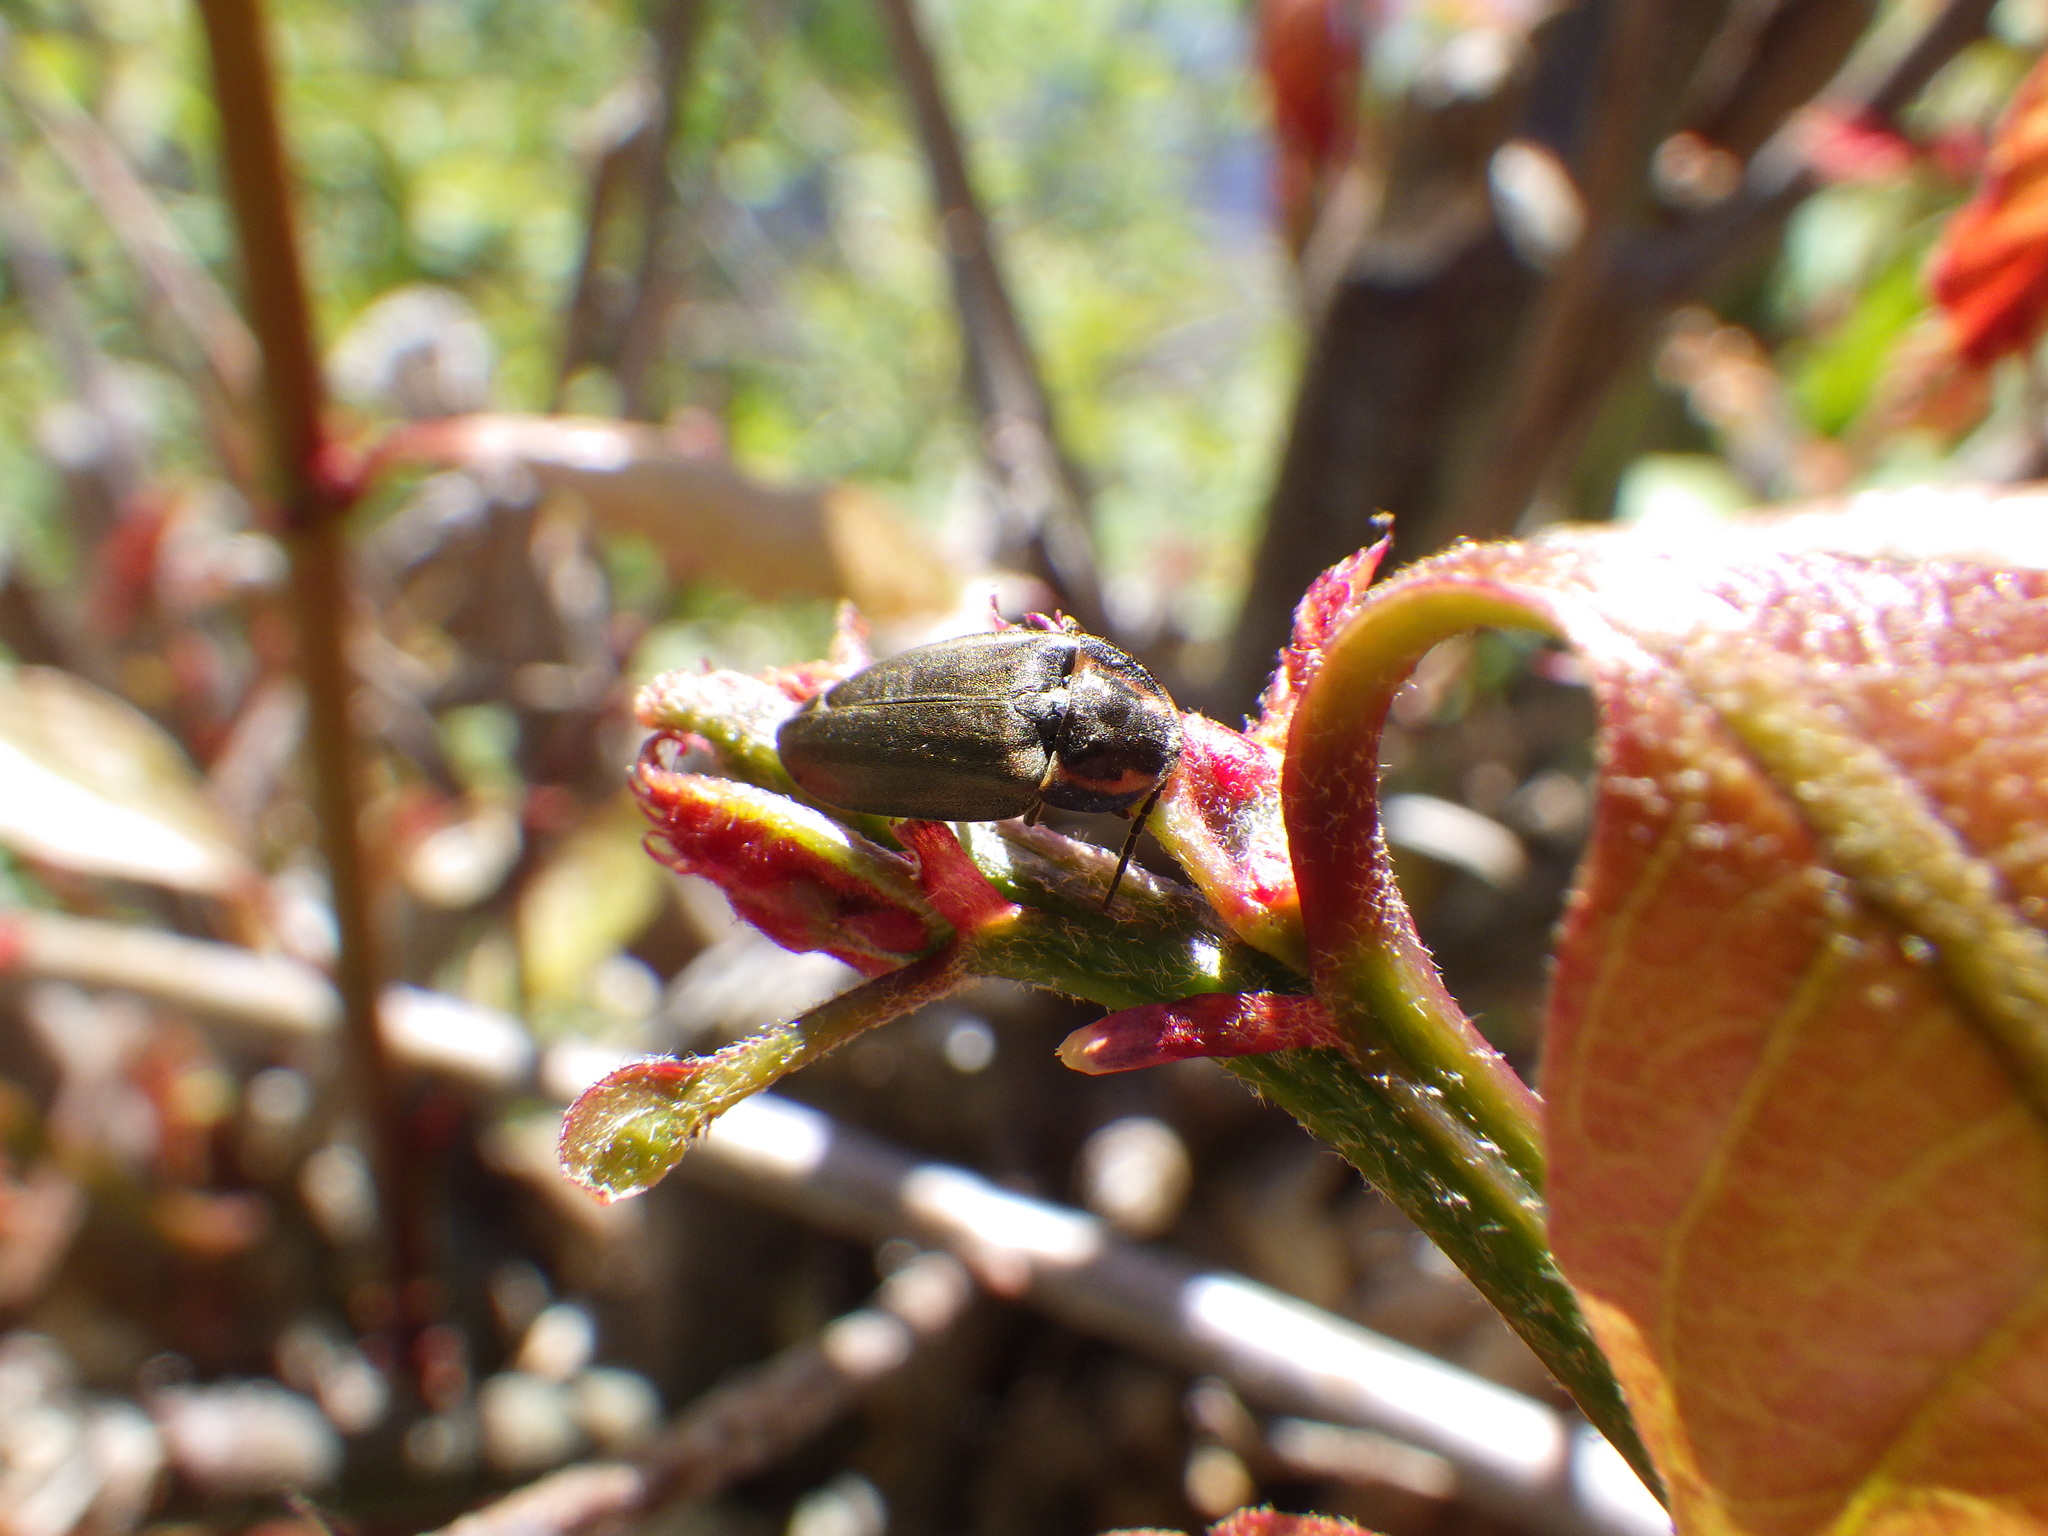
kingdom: Animalia
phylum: Arthropoda
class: Insecta
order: Coleoptera
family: Lampyridae
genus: Photinus
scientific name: Photinus corrusca
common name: Winter firefly
